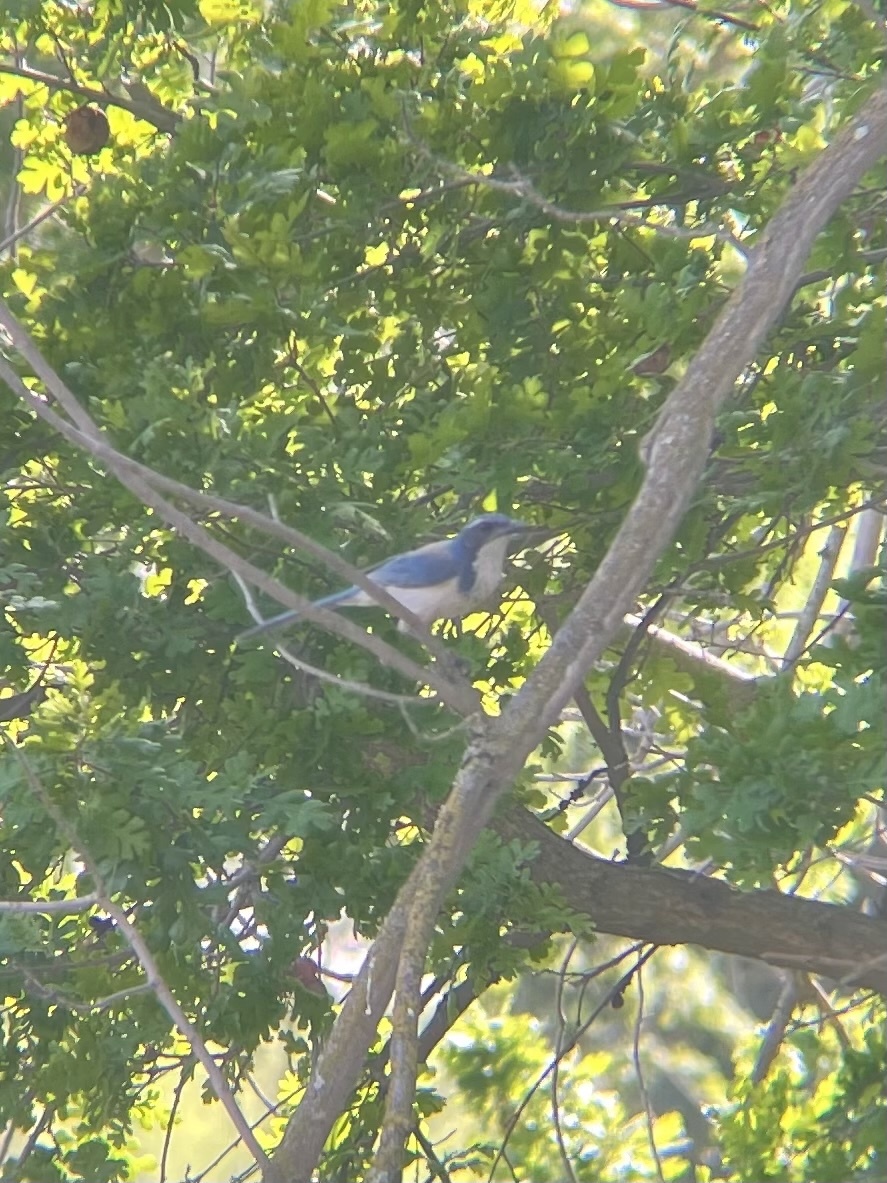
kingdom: Animalia
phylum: Chordata
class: Aves
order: Passeriformes
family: Corvidae
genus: Aphelocoma
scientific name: Aphelocoma californica
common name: California scrub-jay
